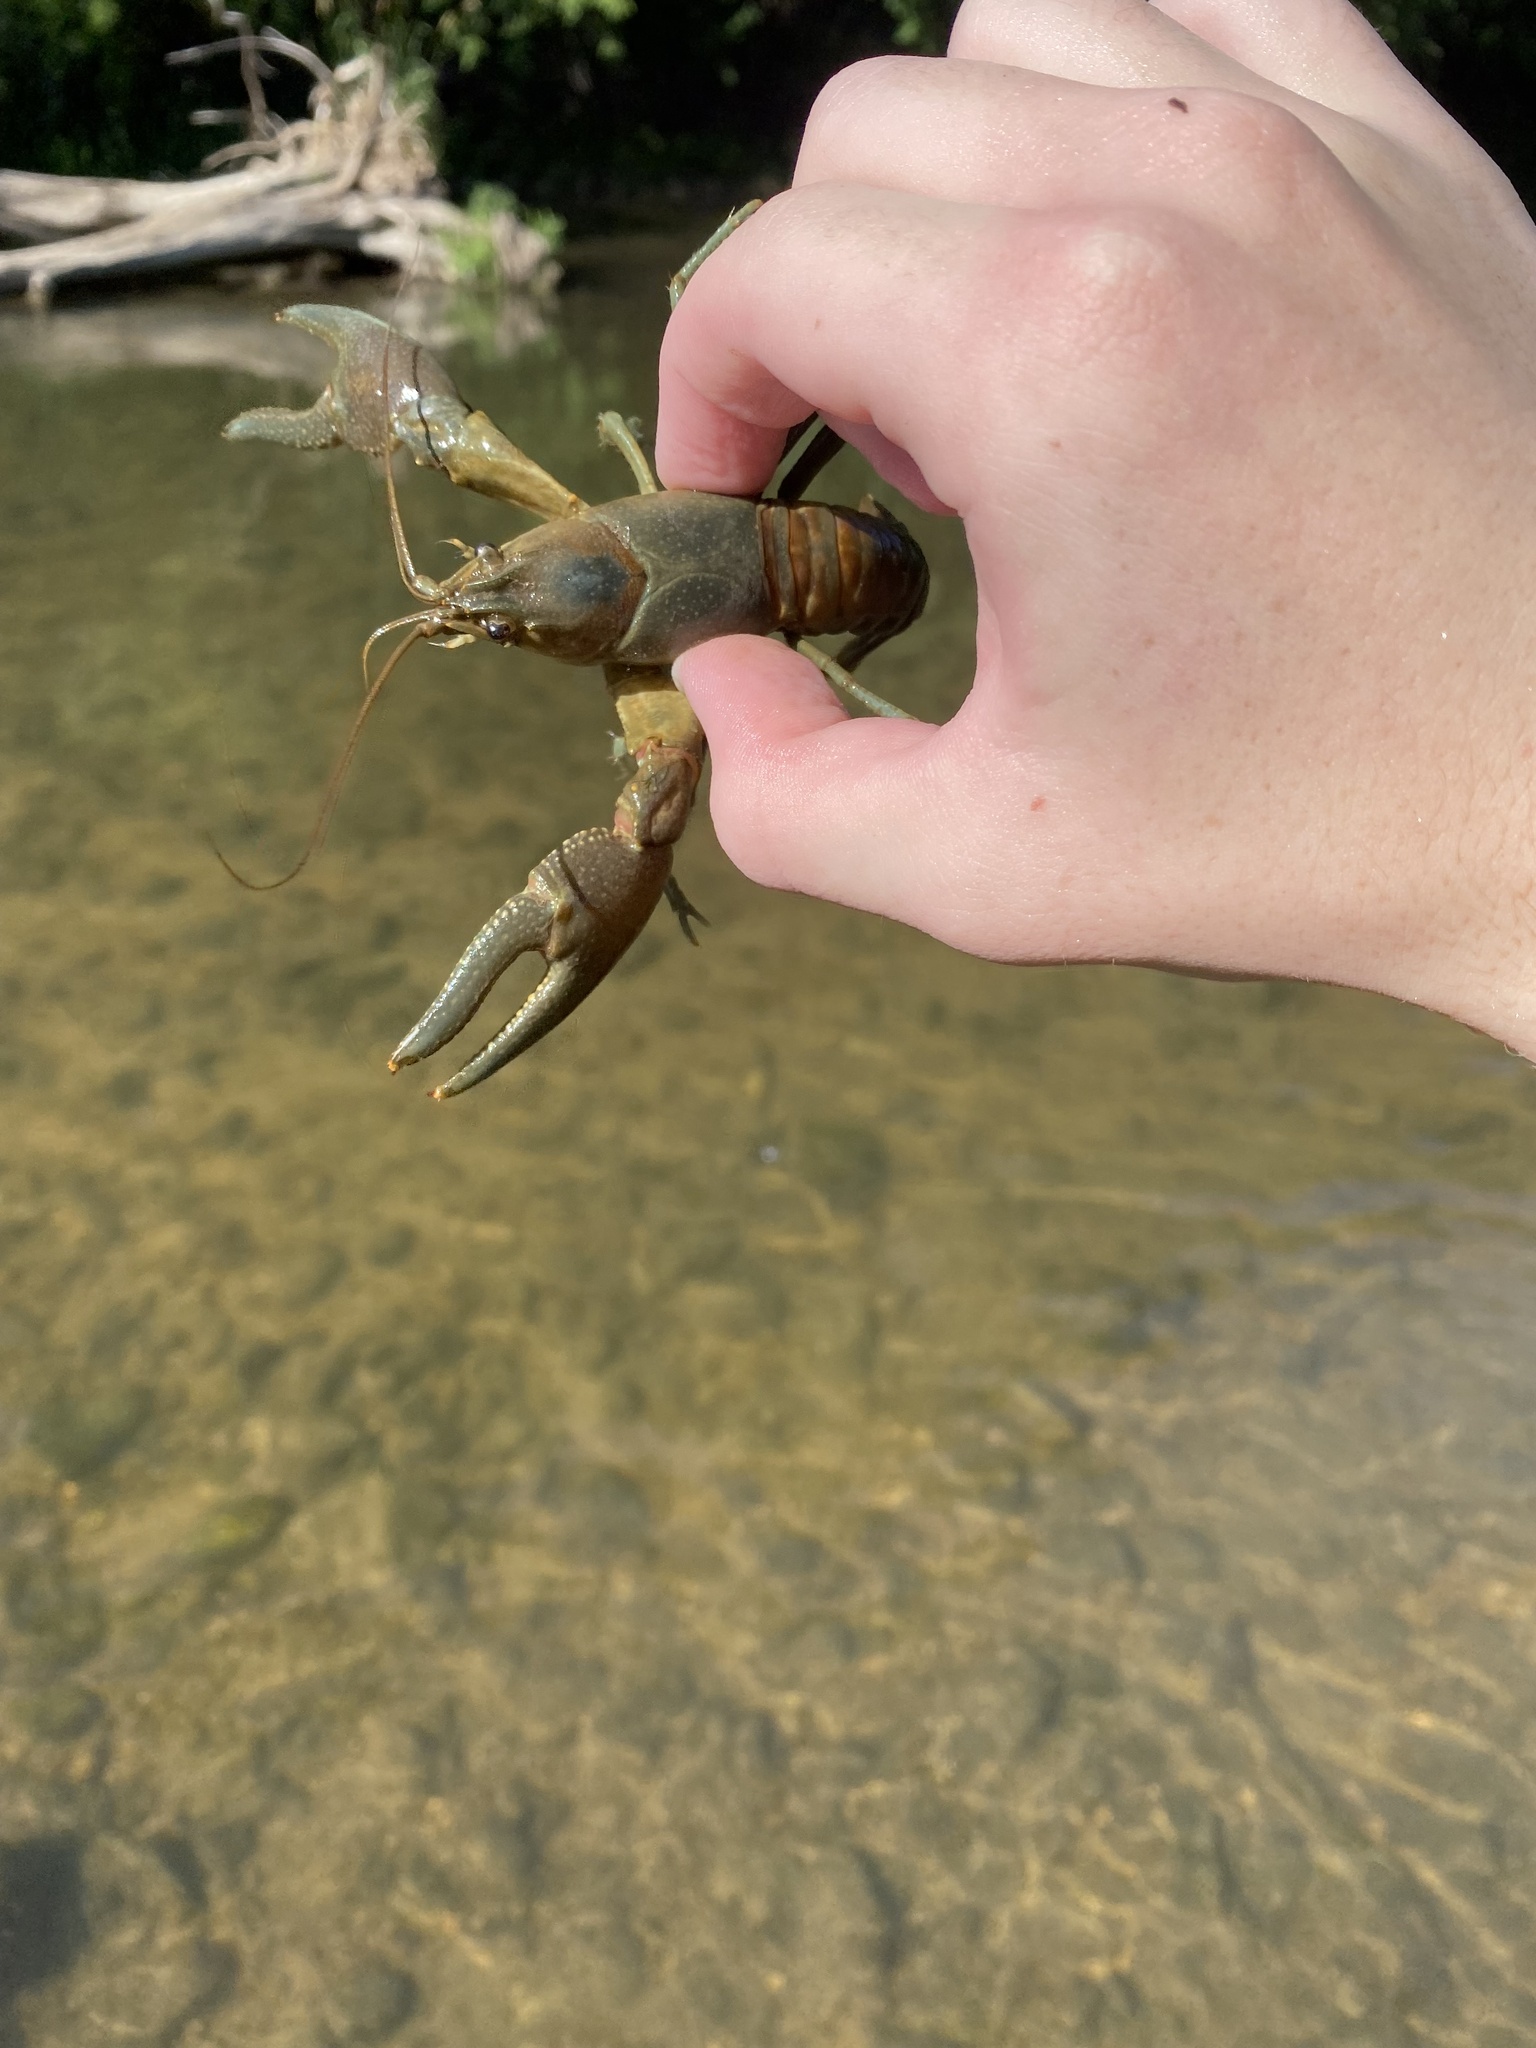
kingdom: Animalia
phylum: Arthropoda
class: Malacostraca
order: Decapoda
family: Cambaridae
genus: Faxonius
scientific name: Faxonius rusticus
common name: Rusty crayfish
